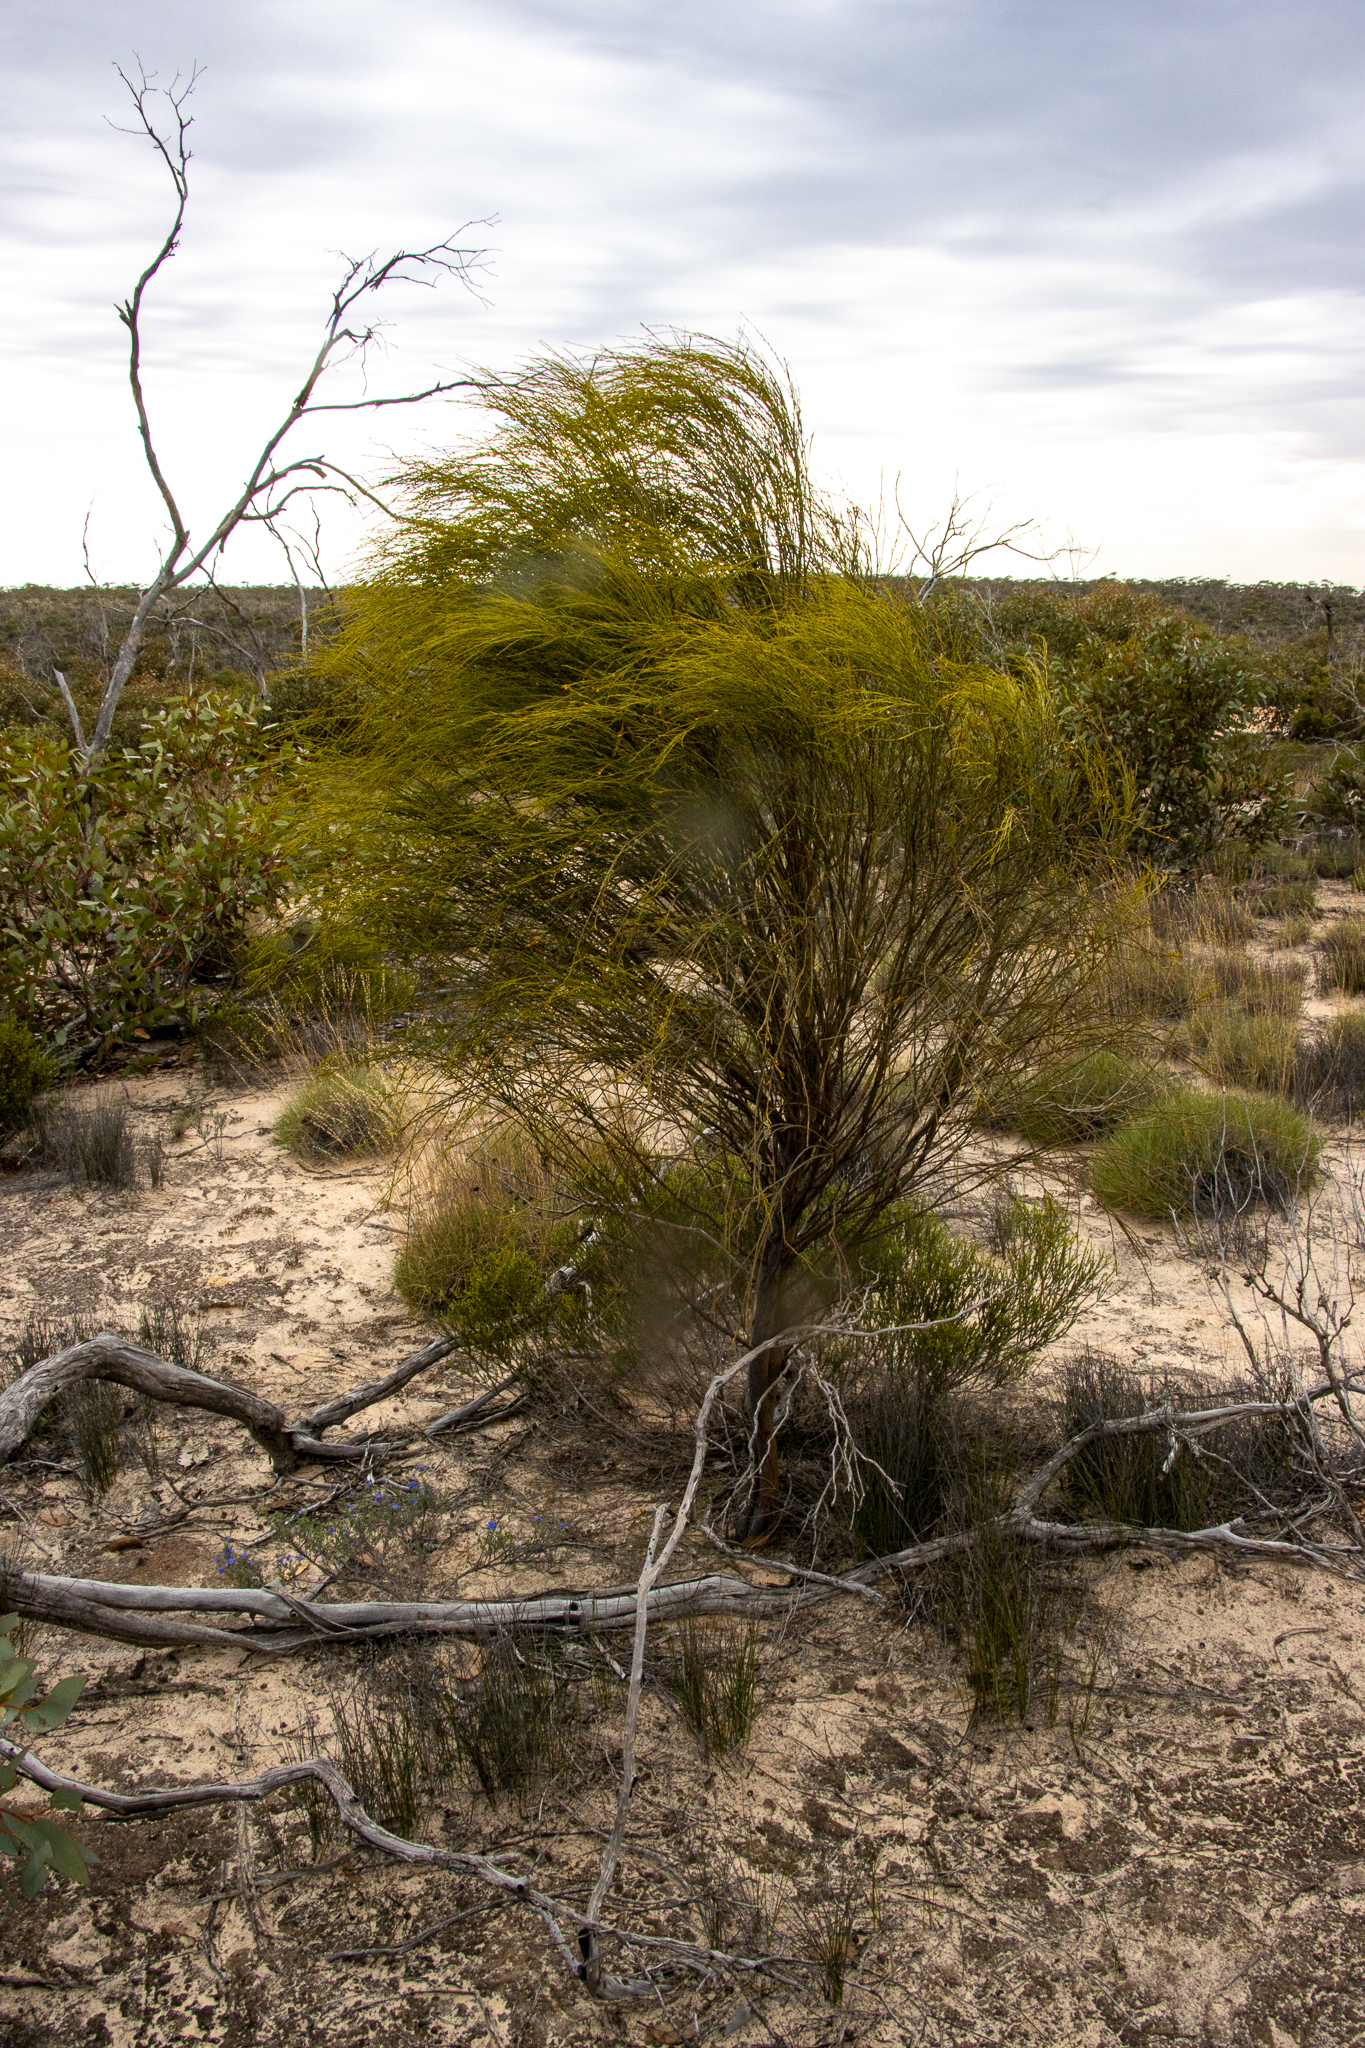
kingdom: Plantae
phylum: Tracheophyta
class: Magnoliopsida
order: Santalales
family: Santalaceae
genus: Exocarpos
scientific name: Exocarpos cupressiformis
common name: Cherry ballart
